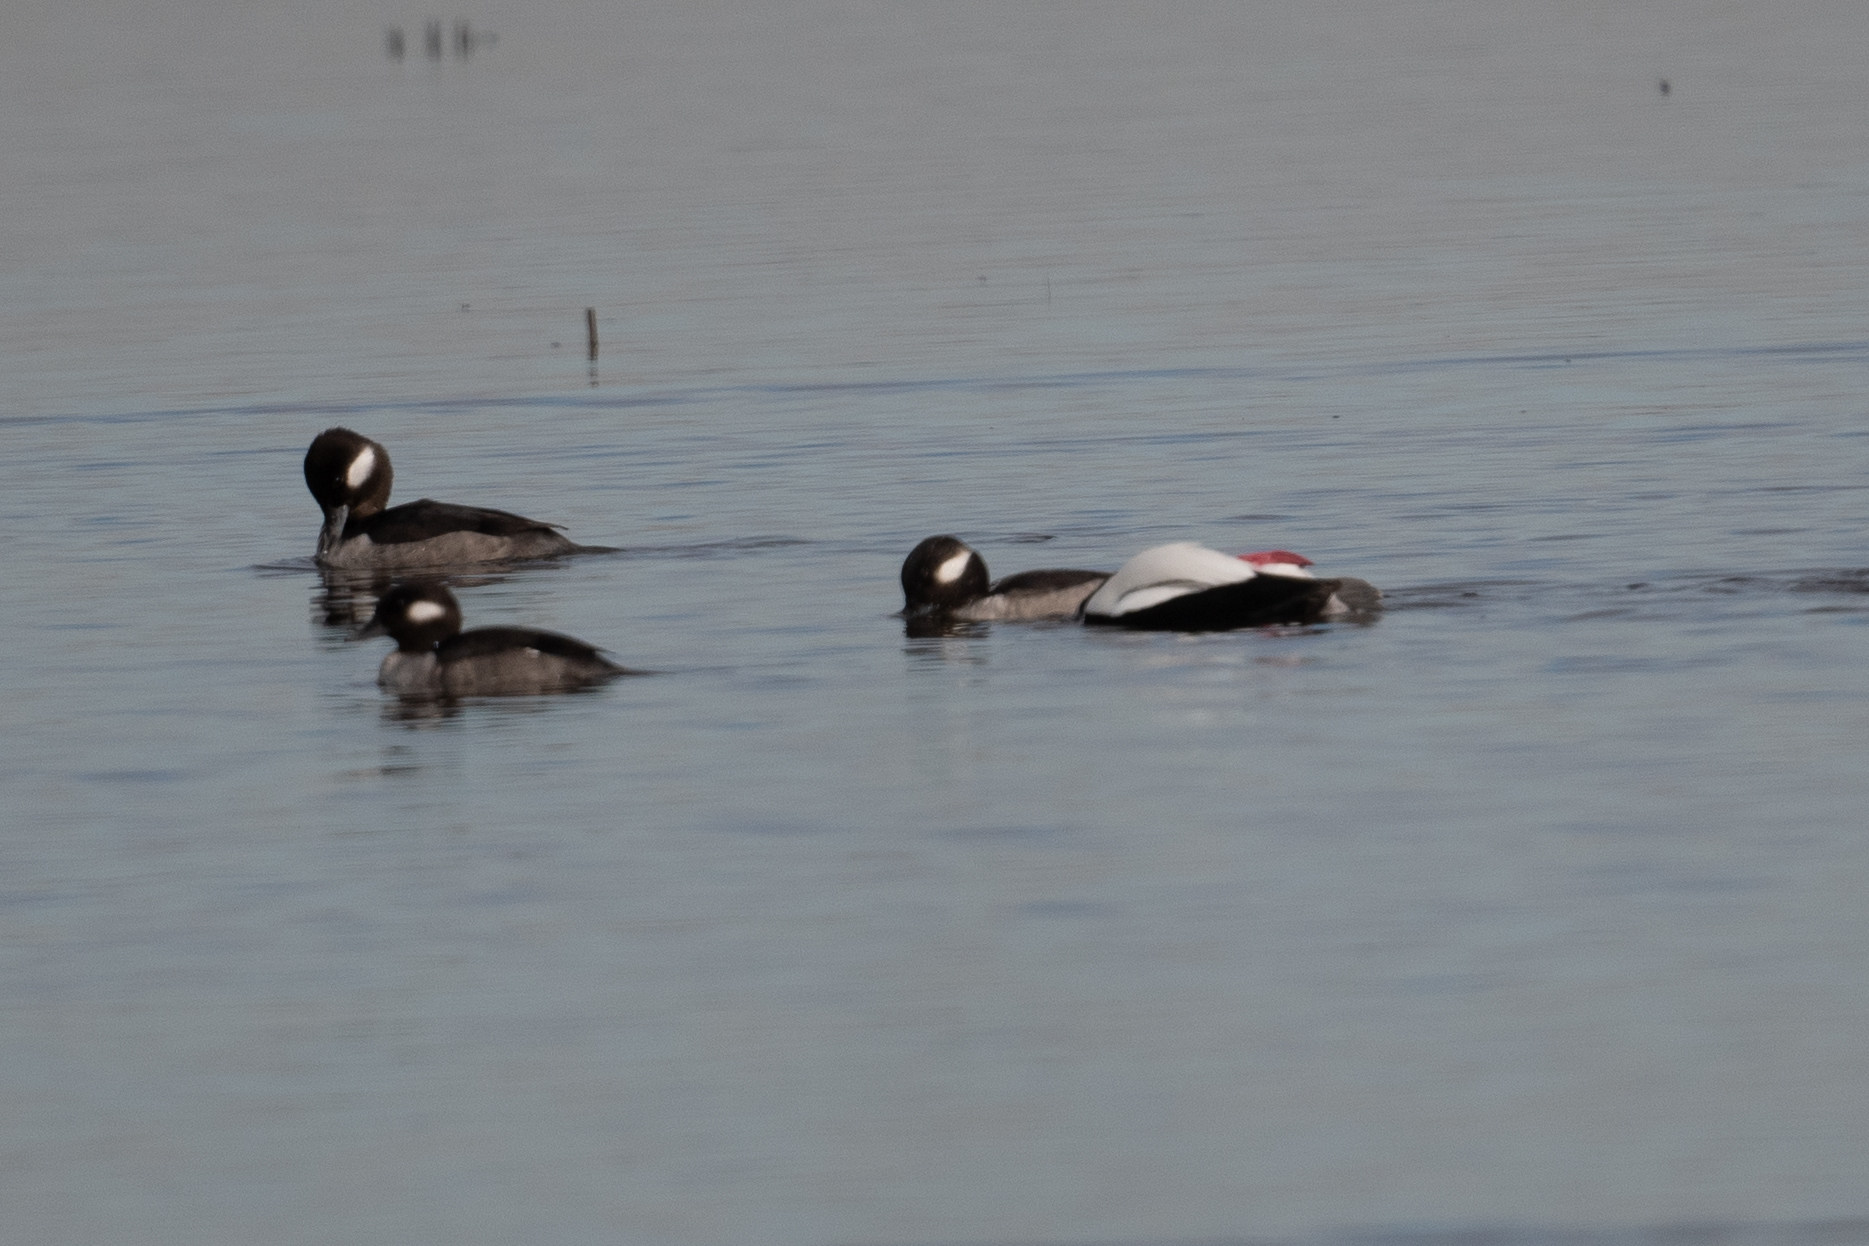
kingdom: Animalia
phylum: Chordata
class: Aves
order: Anseriformes
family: Anatidae
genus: Bucephala
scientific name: Bucephala albeola
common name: Bufflehead
